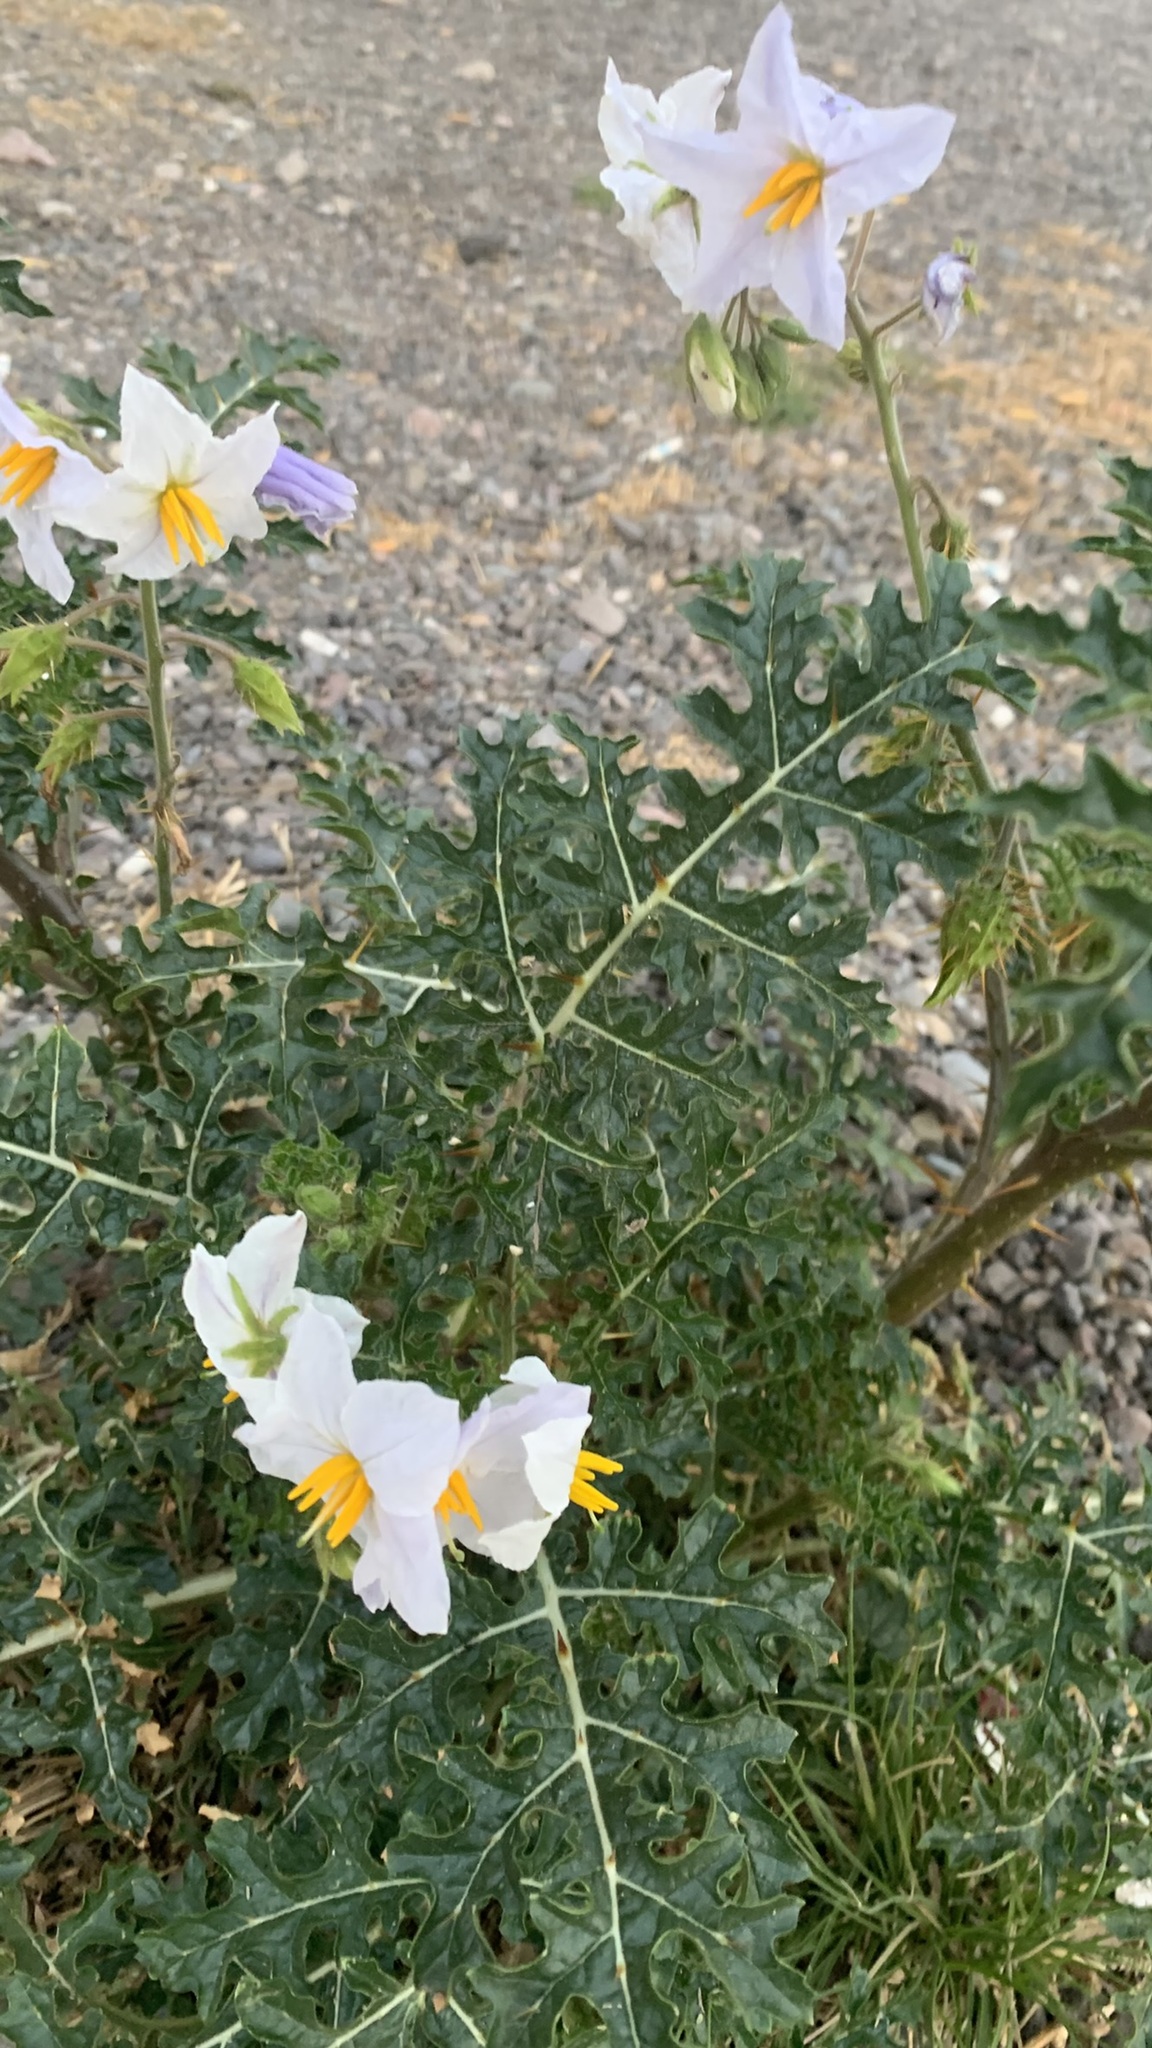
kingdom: Plantae
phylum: Tracheophyta
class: Magnoliopsida
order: Solanales
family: Solanaceae
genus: Solanum
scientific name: Solanum sisymbriifolium
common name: Red buffalo-bur
